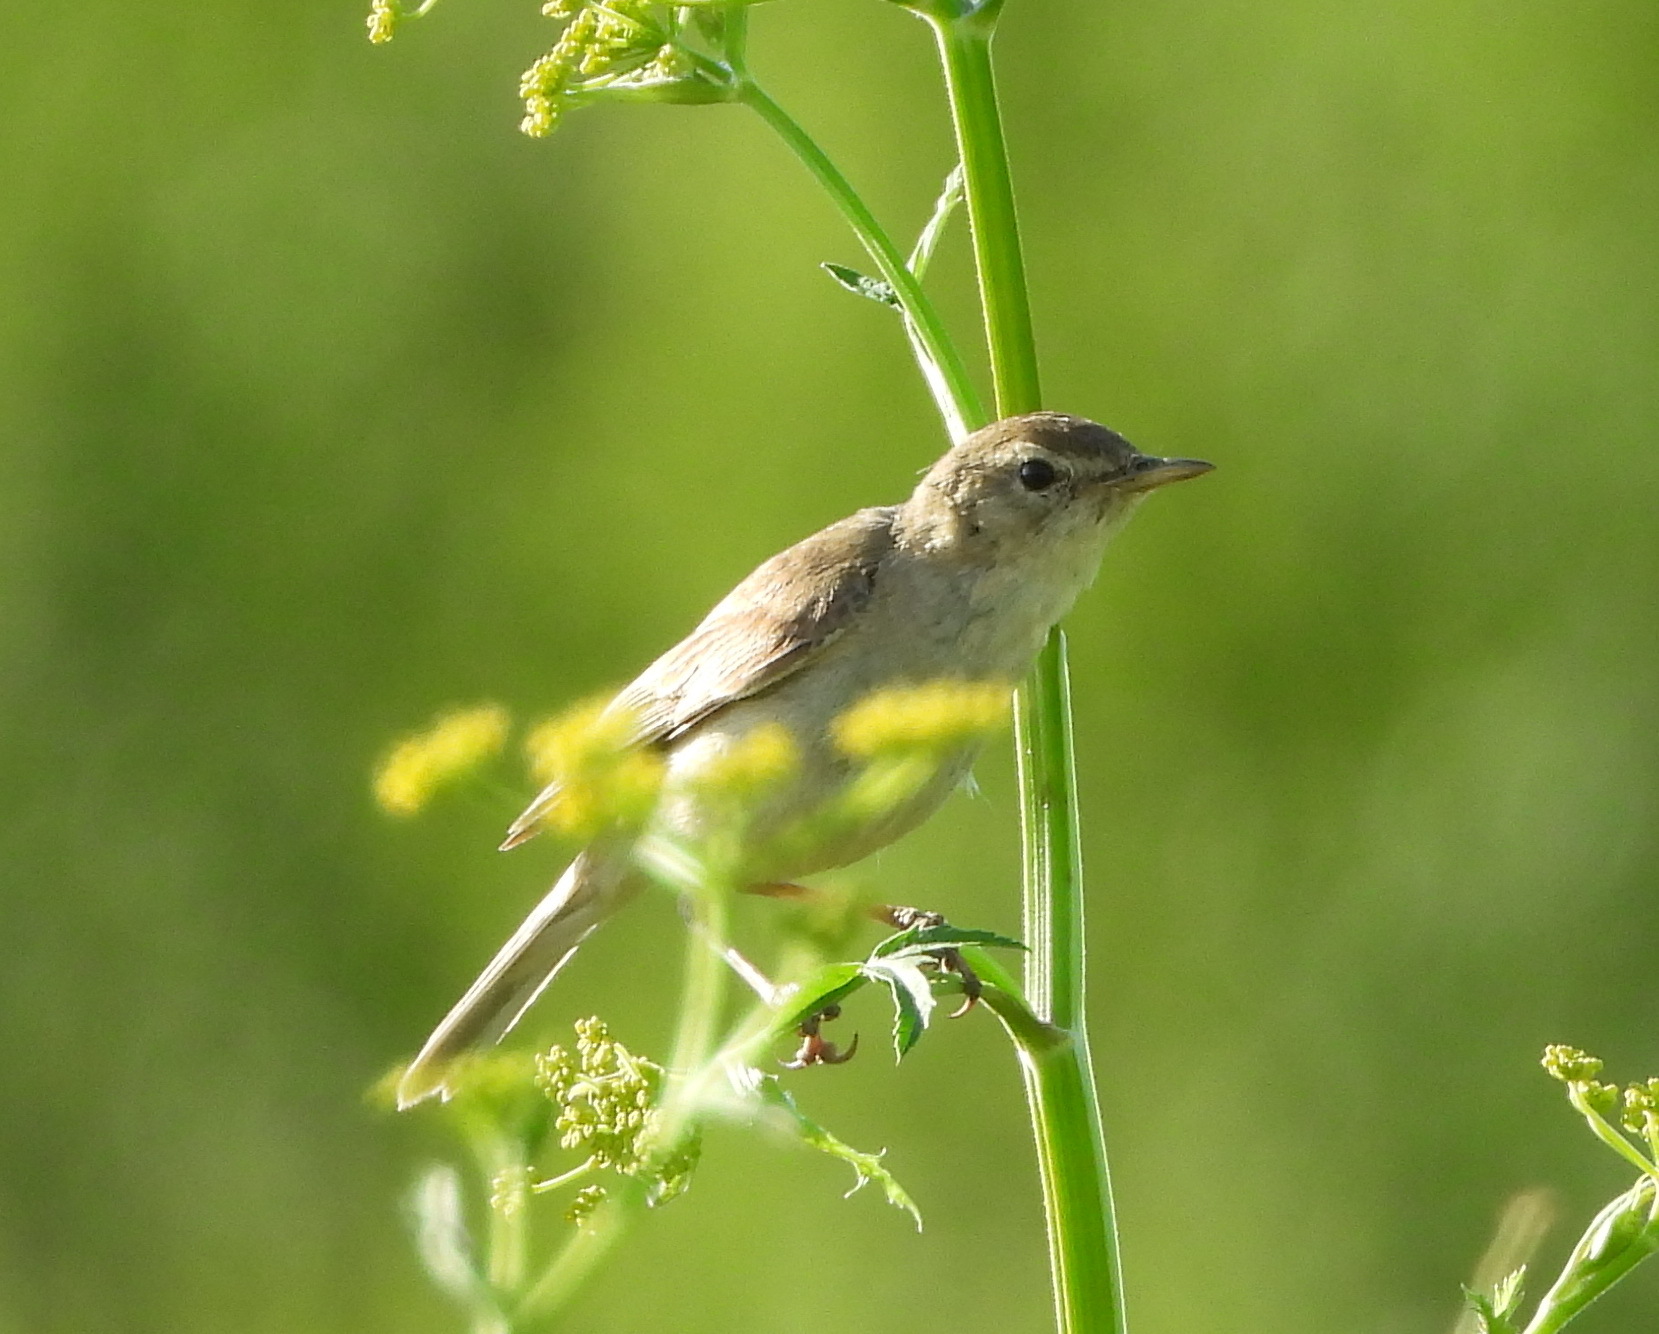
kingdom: Animalia
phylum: Chordata
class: Aves
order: Passeriformes
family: Acrocephalidae
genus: Iduna
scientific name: Iduna caligata
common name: Booted warbler
